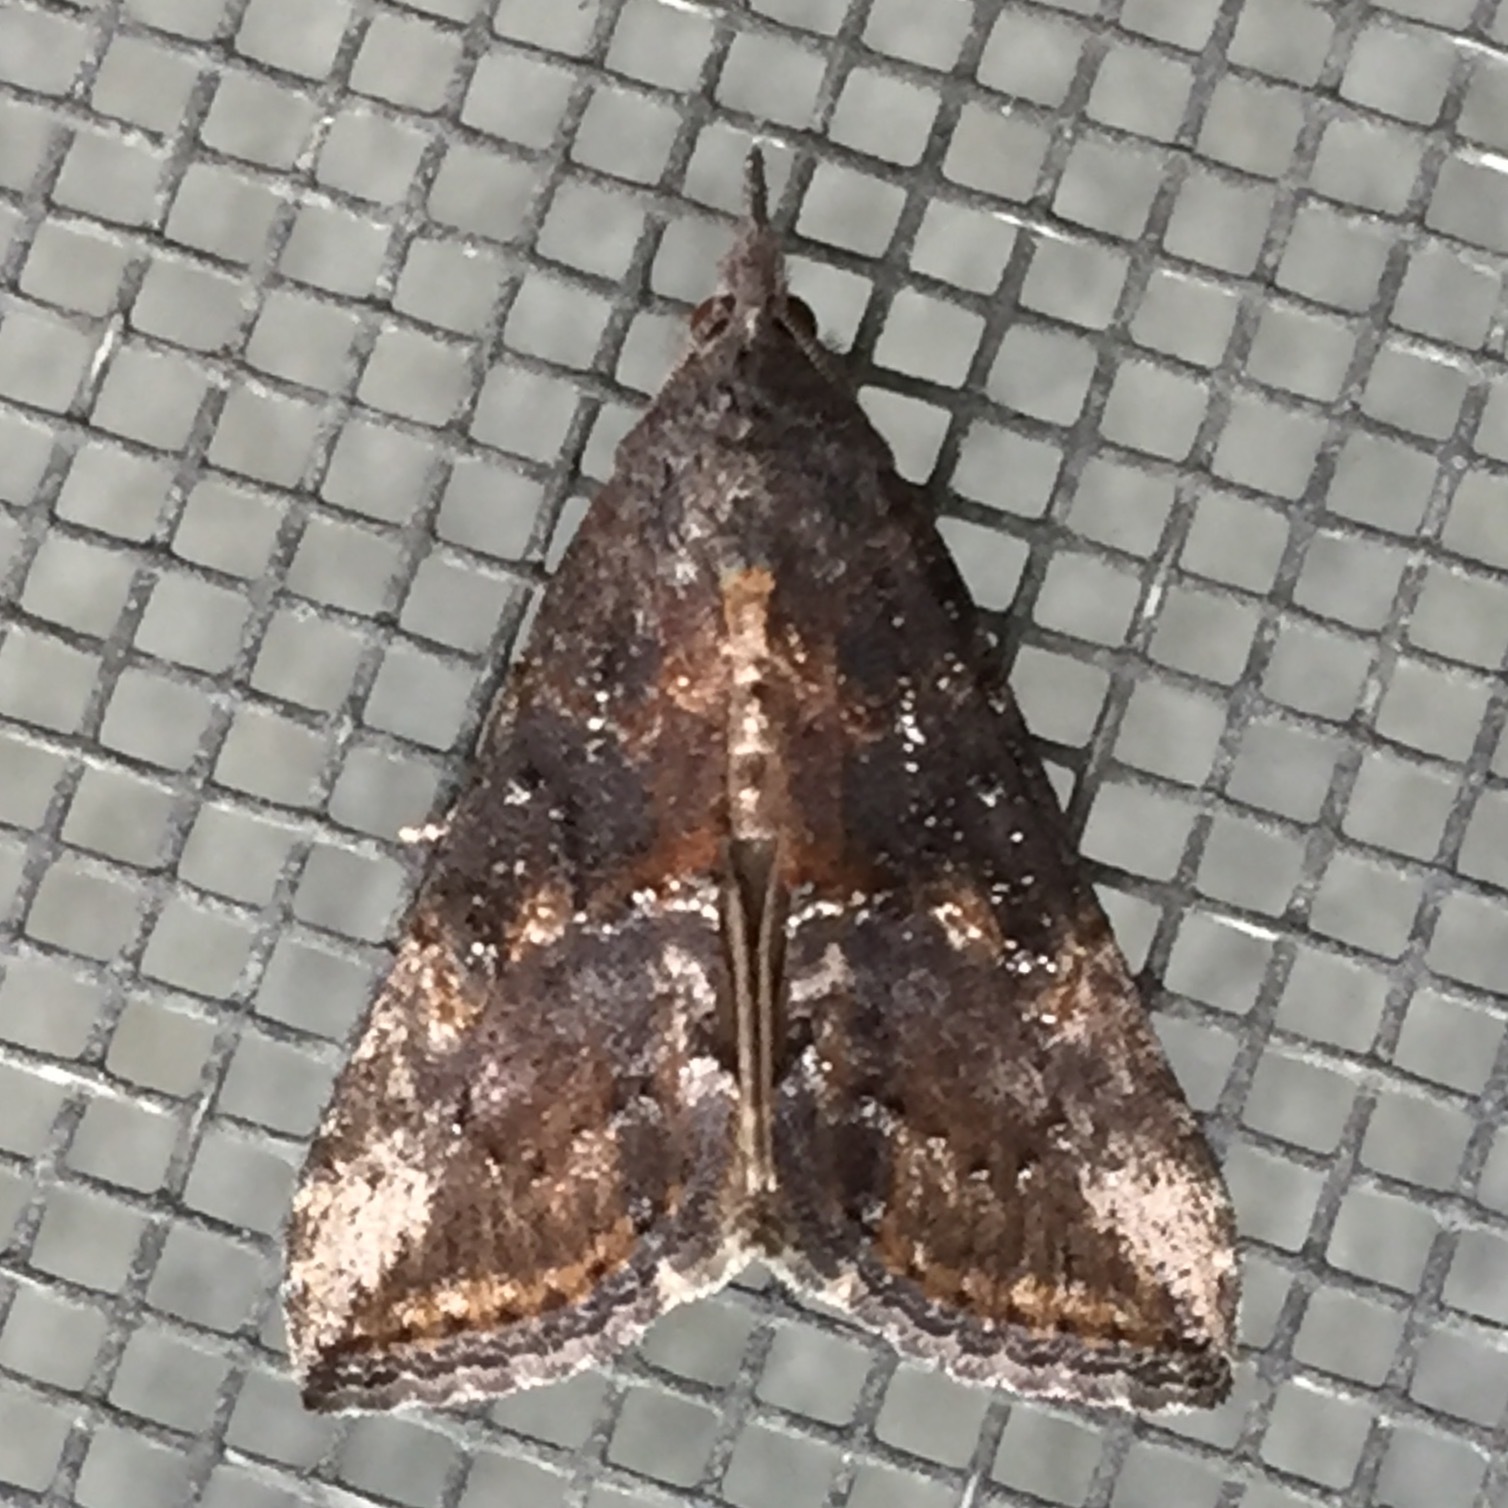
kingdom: Animalia
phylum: Arthropoda
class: Insecta
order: Lepidoptera
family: Erebidae
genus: Hypena
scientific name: Hypena scabra
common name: Green cloverworm
